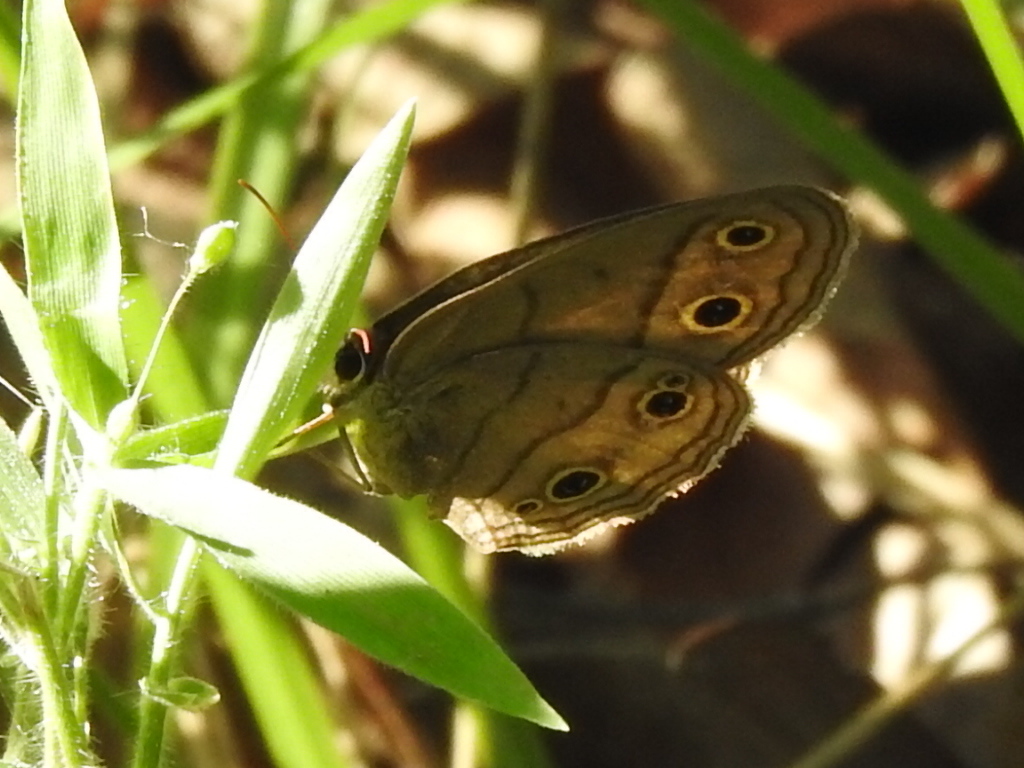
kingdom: Animalia
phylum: Arthropoda
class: Insecta
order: Lepidoptera
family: Nymphalidae
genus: Euptychia
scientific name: Euptychia cymela
